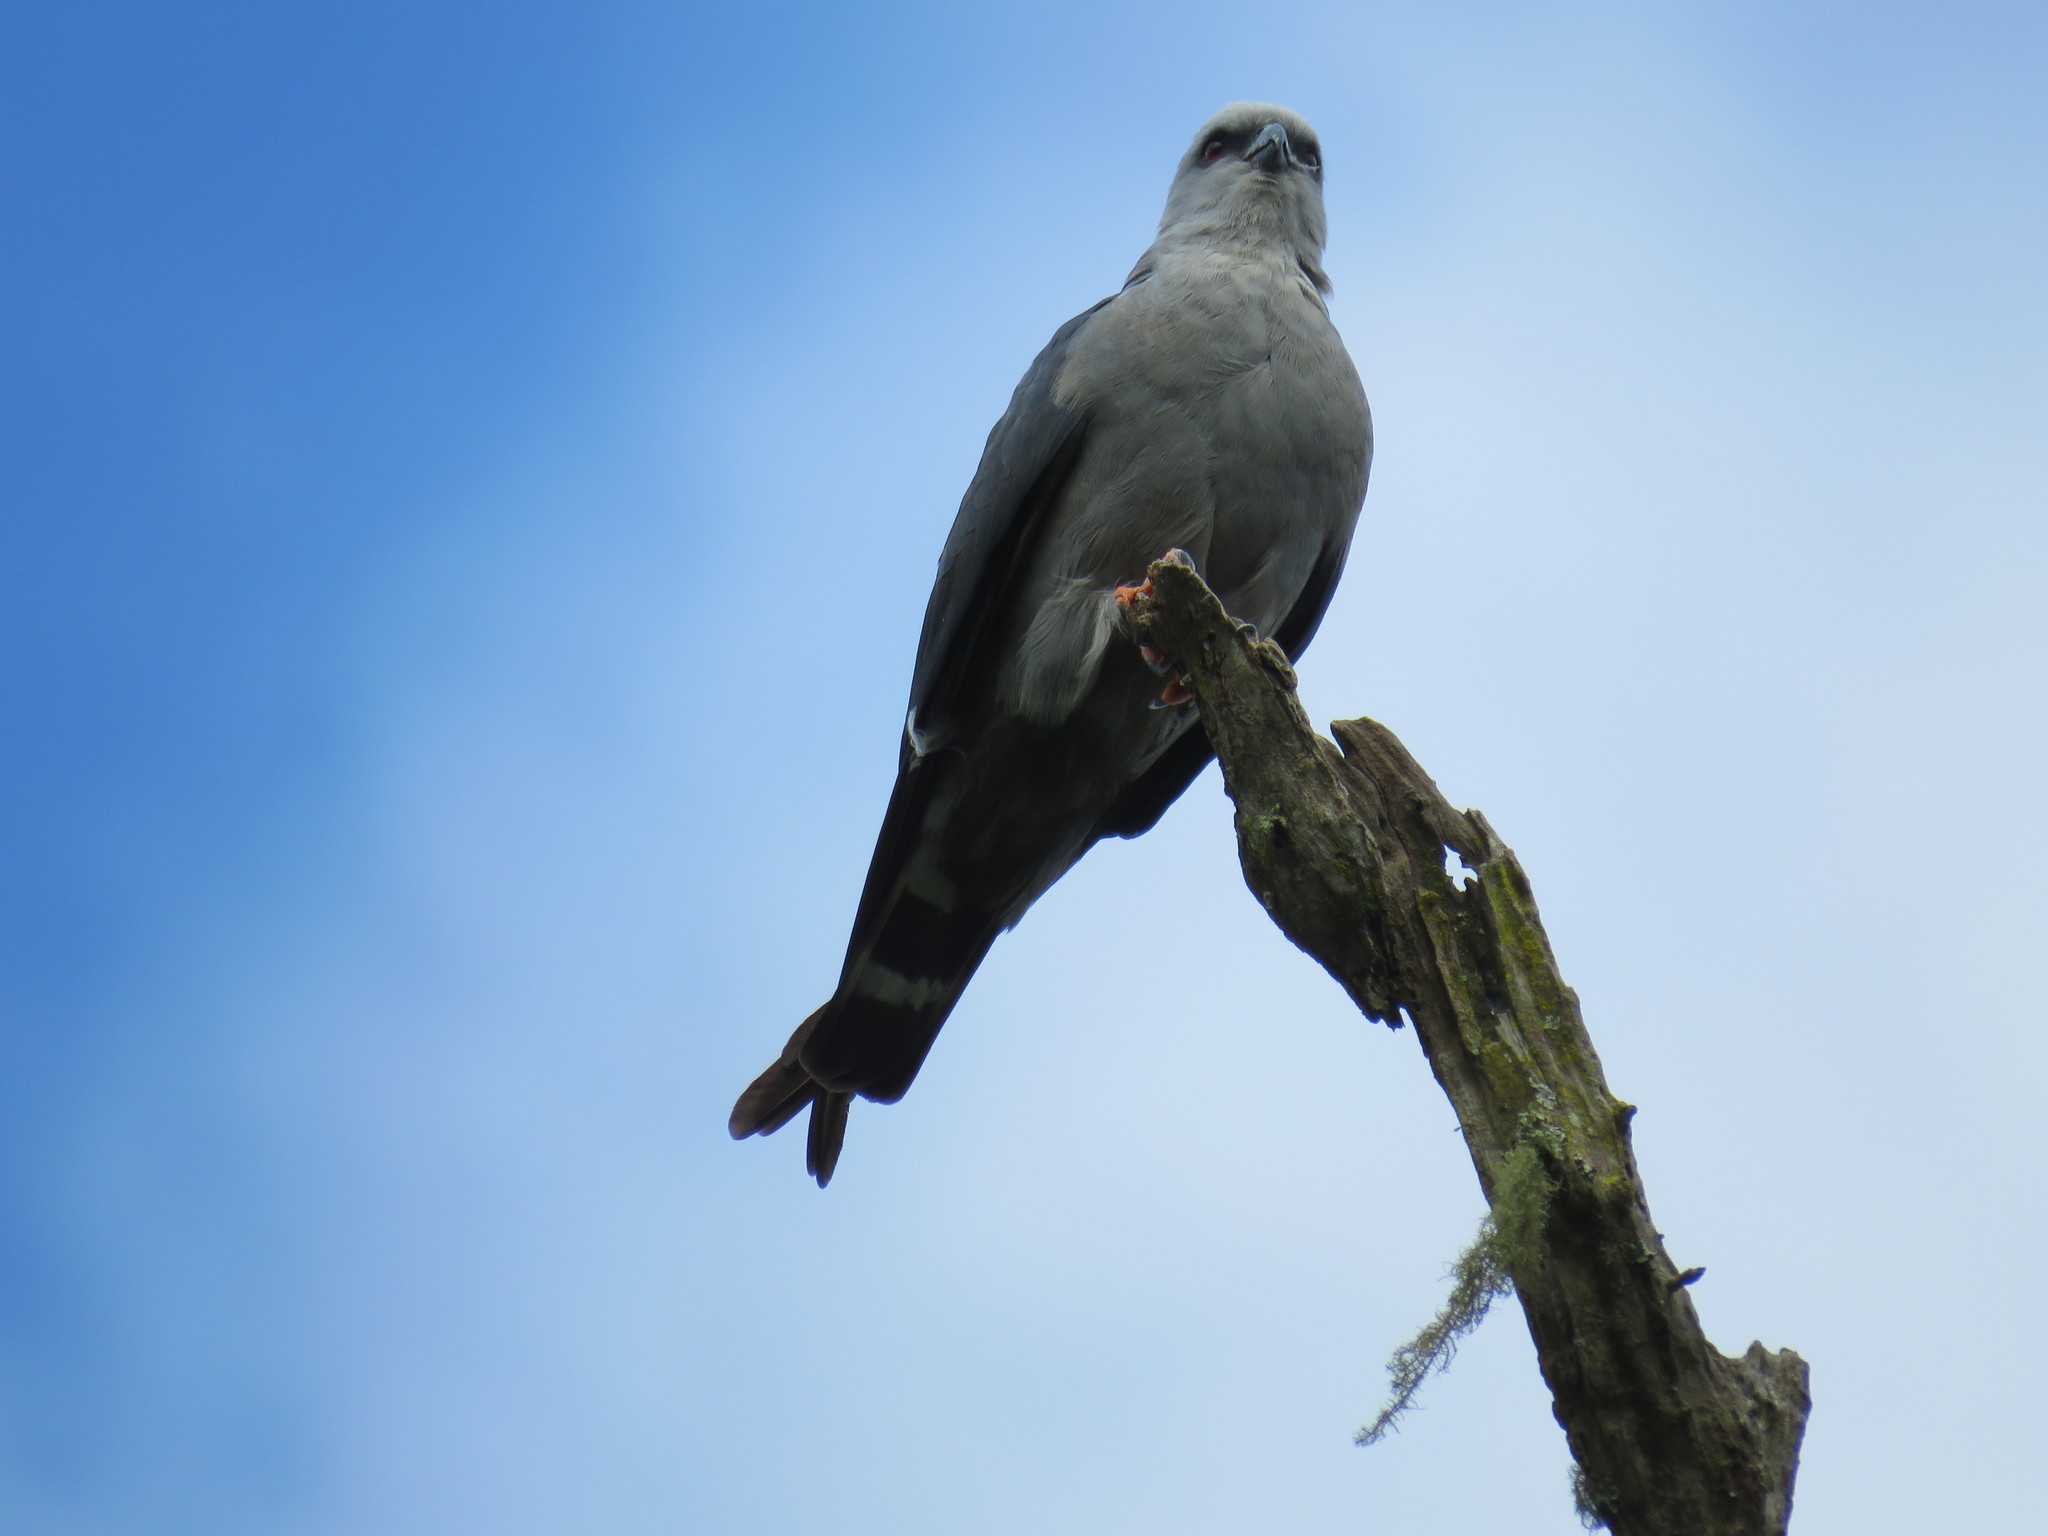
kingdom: Animalia
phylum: Chordata
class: Aves
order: Accipitriformes
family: Accipitridae
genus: Ictinia
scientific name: Ictinia plumbea
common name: Plumbeous kite
